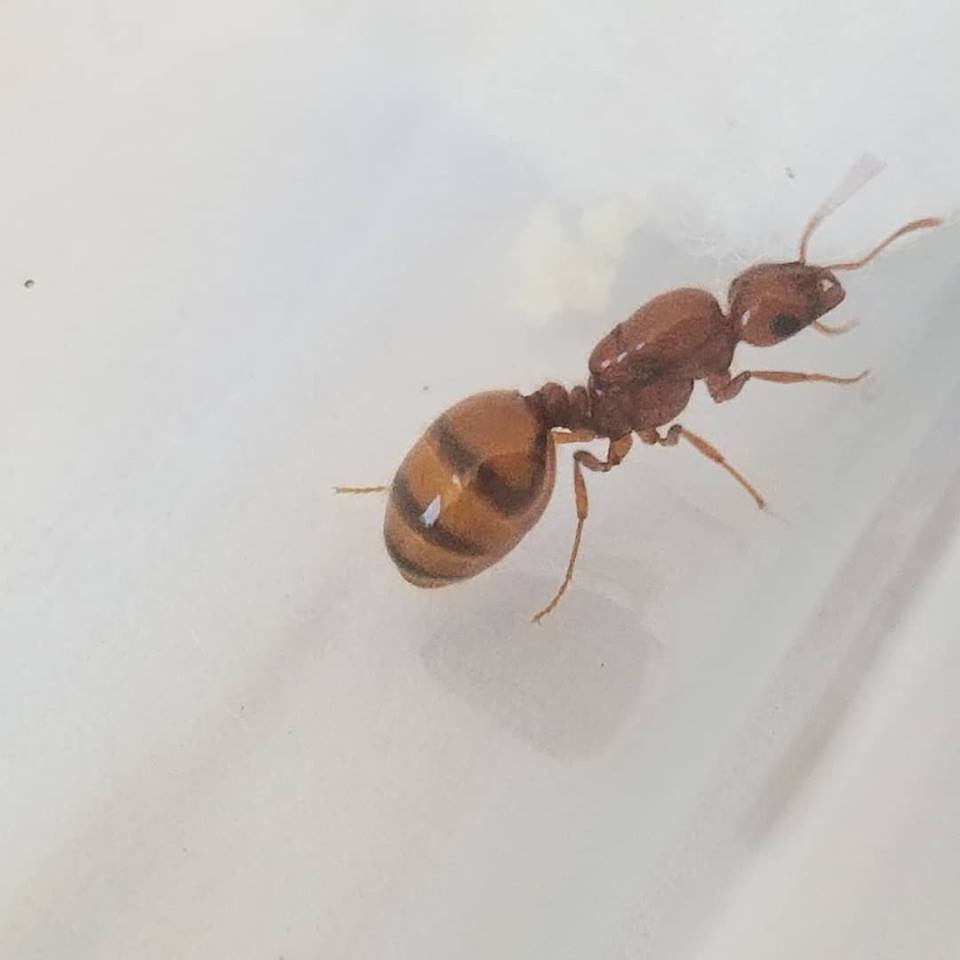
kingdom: Animalia
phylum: Arthropoda
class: Insecta
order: Hymenoptera
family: Formicidae
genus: Solenopsis
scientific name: Solenopsis aurea
